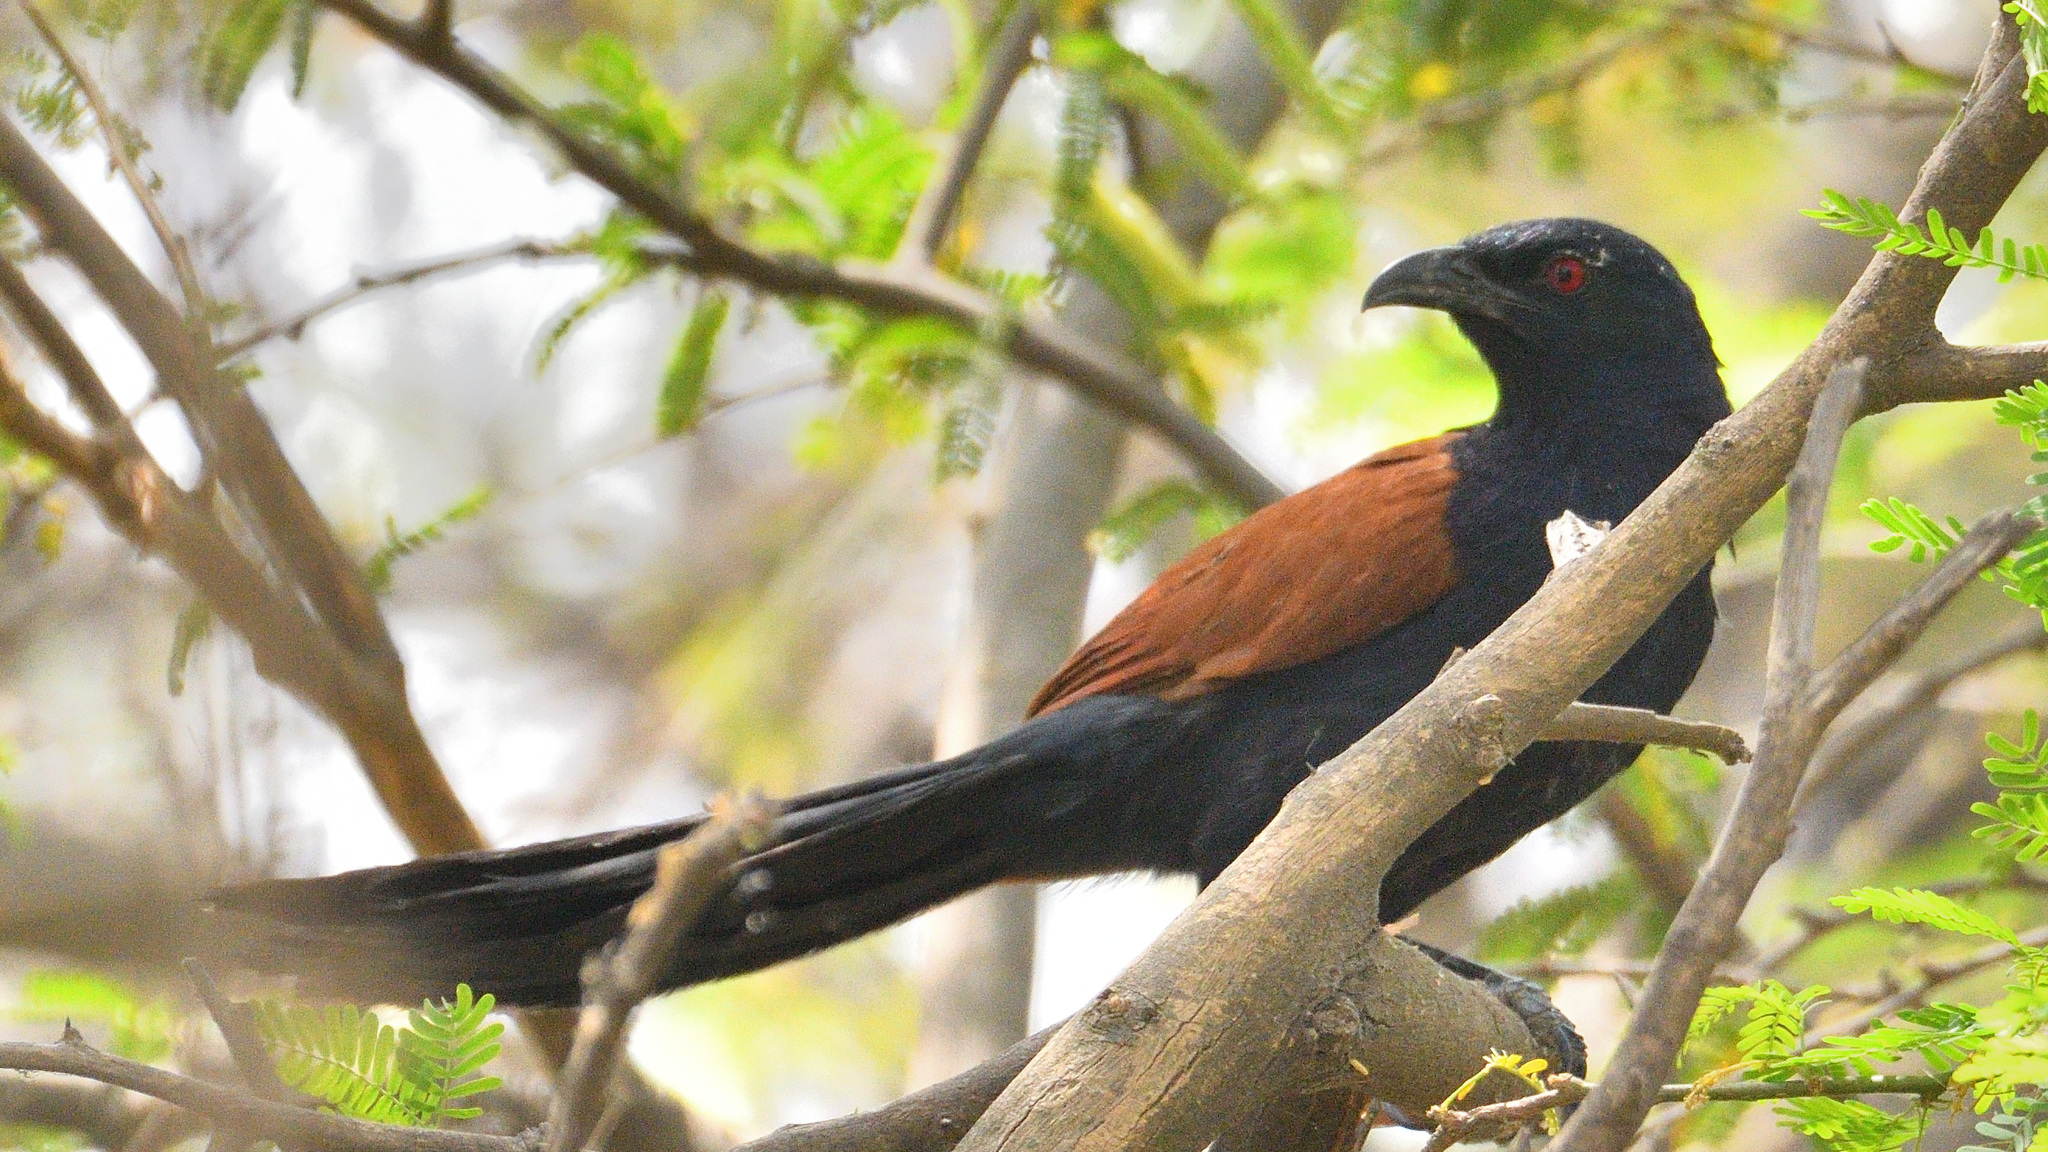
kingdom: Animalia
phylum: Chordata
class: Aves
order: Cuculiformes
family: Cuculidae
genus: Centropus
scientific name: Centropus sinensis
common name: Greater coucal
